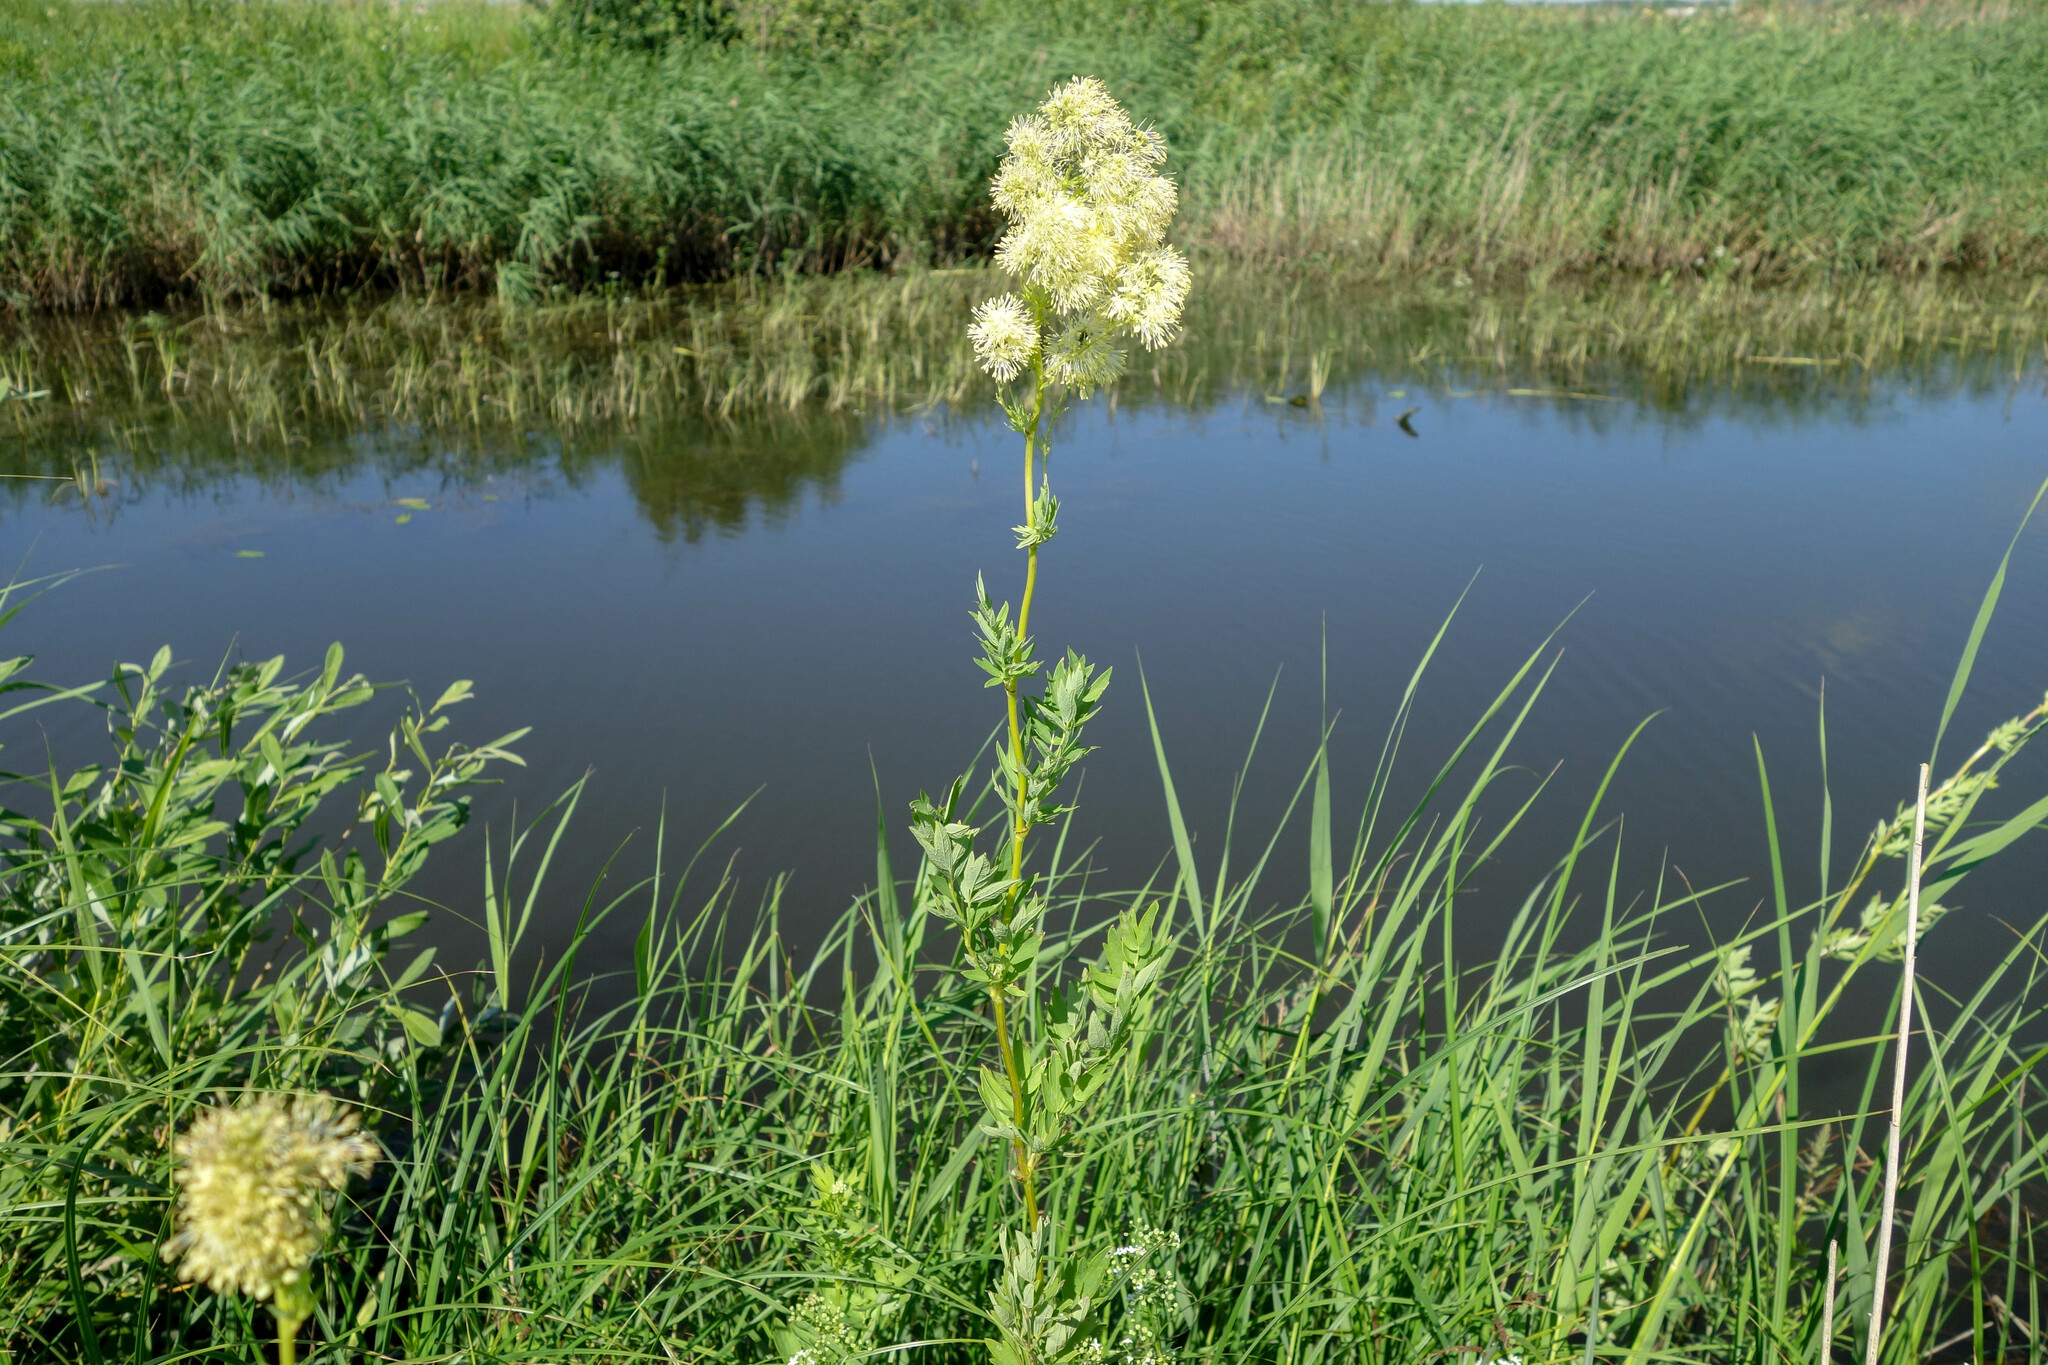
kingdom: Plantae
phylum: Tracheophyta
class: Magnoliopsida
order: Ranunculales
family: Ranunculaceae
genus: Thalictrum
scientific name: Thalictrum flavum
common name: Common meadow-rue
